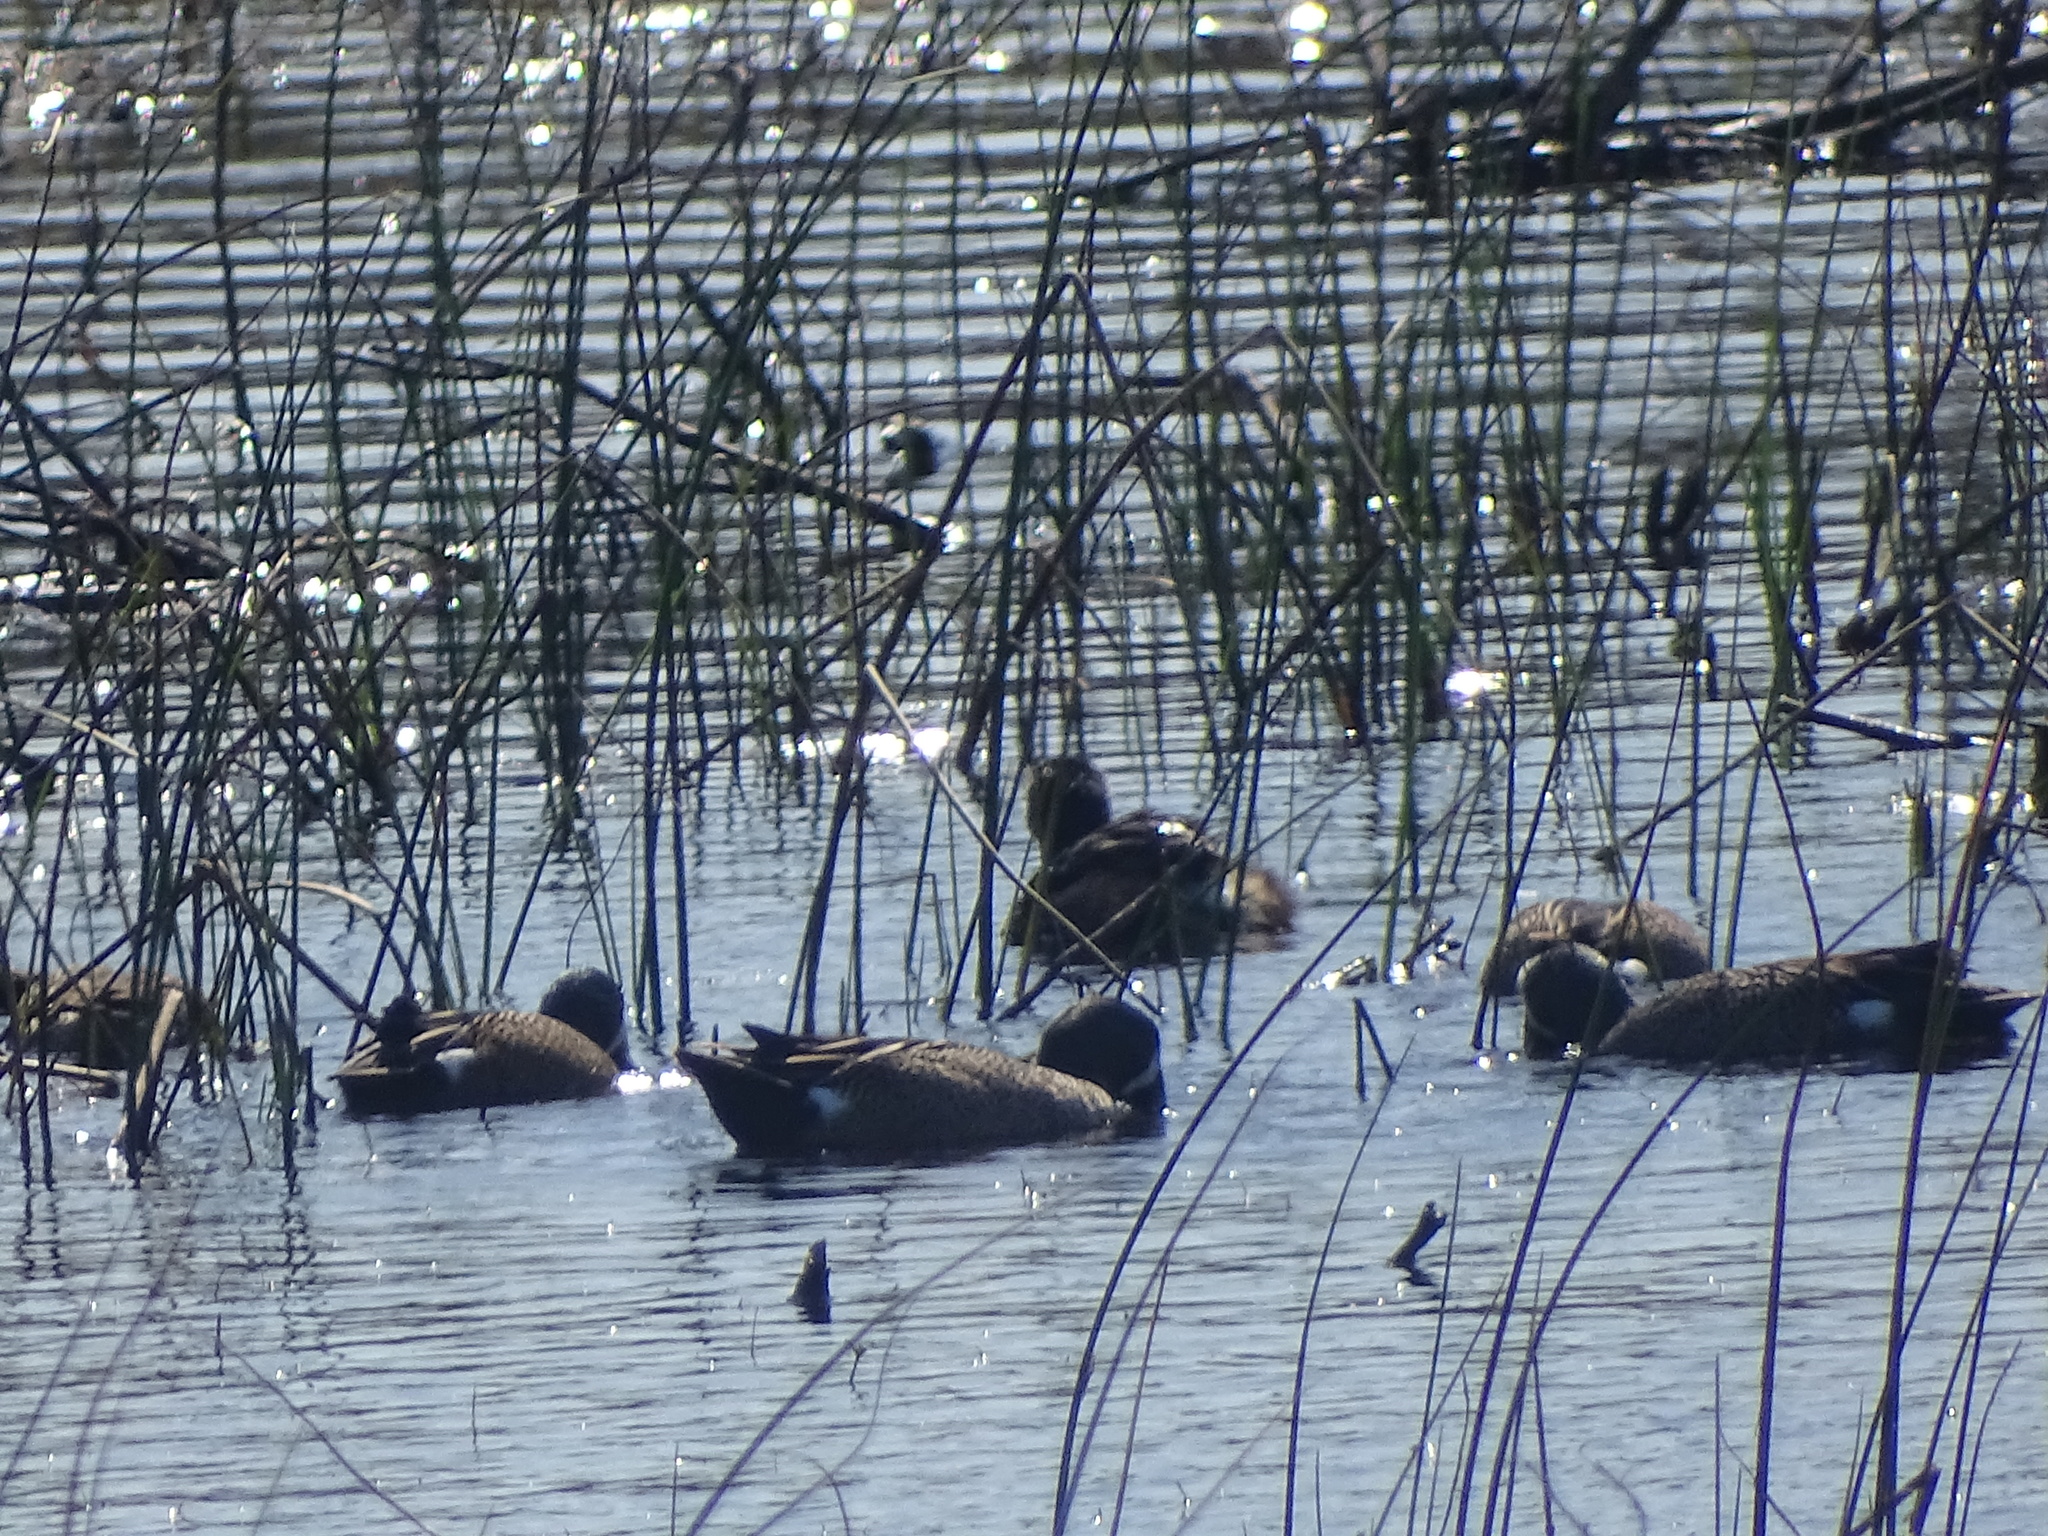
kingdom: Animalia
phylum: Chordata
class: Aves
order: Anseriformes
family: Anatidae
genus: Spatula
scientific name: Spatula discors
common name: Blue-winged teal
